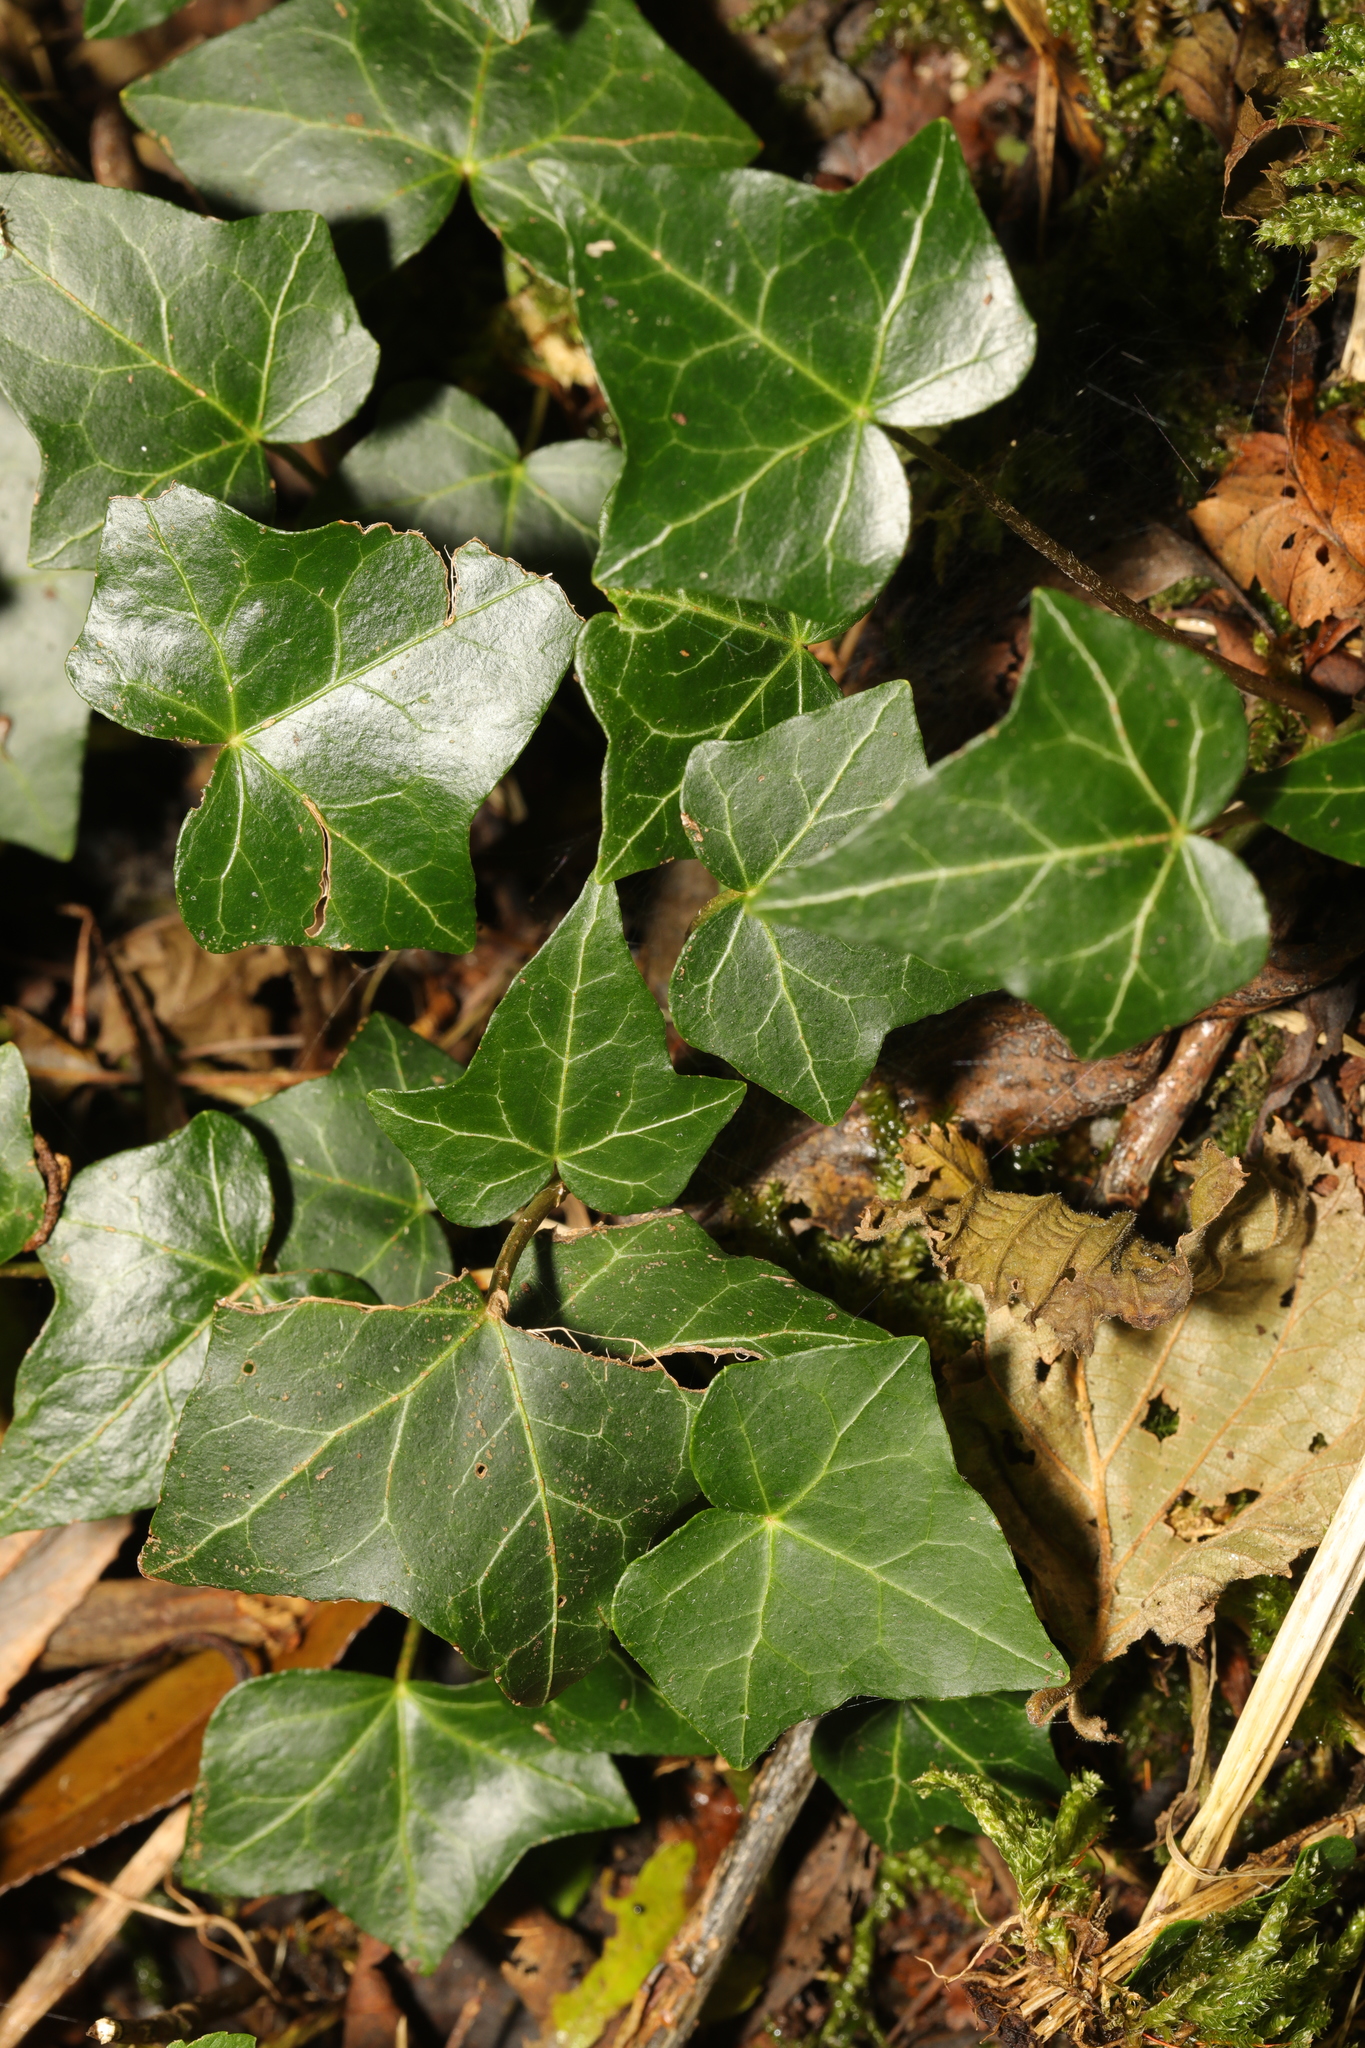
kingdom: Plantae
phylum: Tracheophyta
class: Magnoliopsida
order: Apiales
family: Araliaceae
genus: Hedera
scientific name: Hedera helix
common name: Ivy
